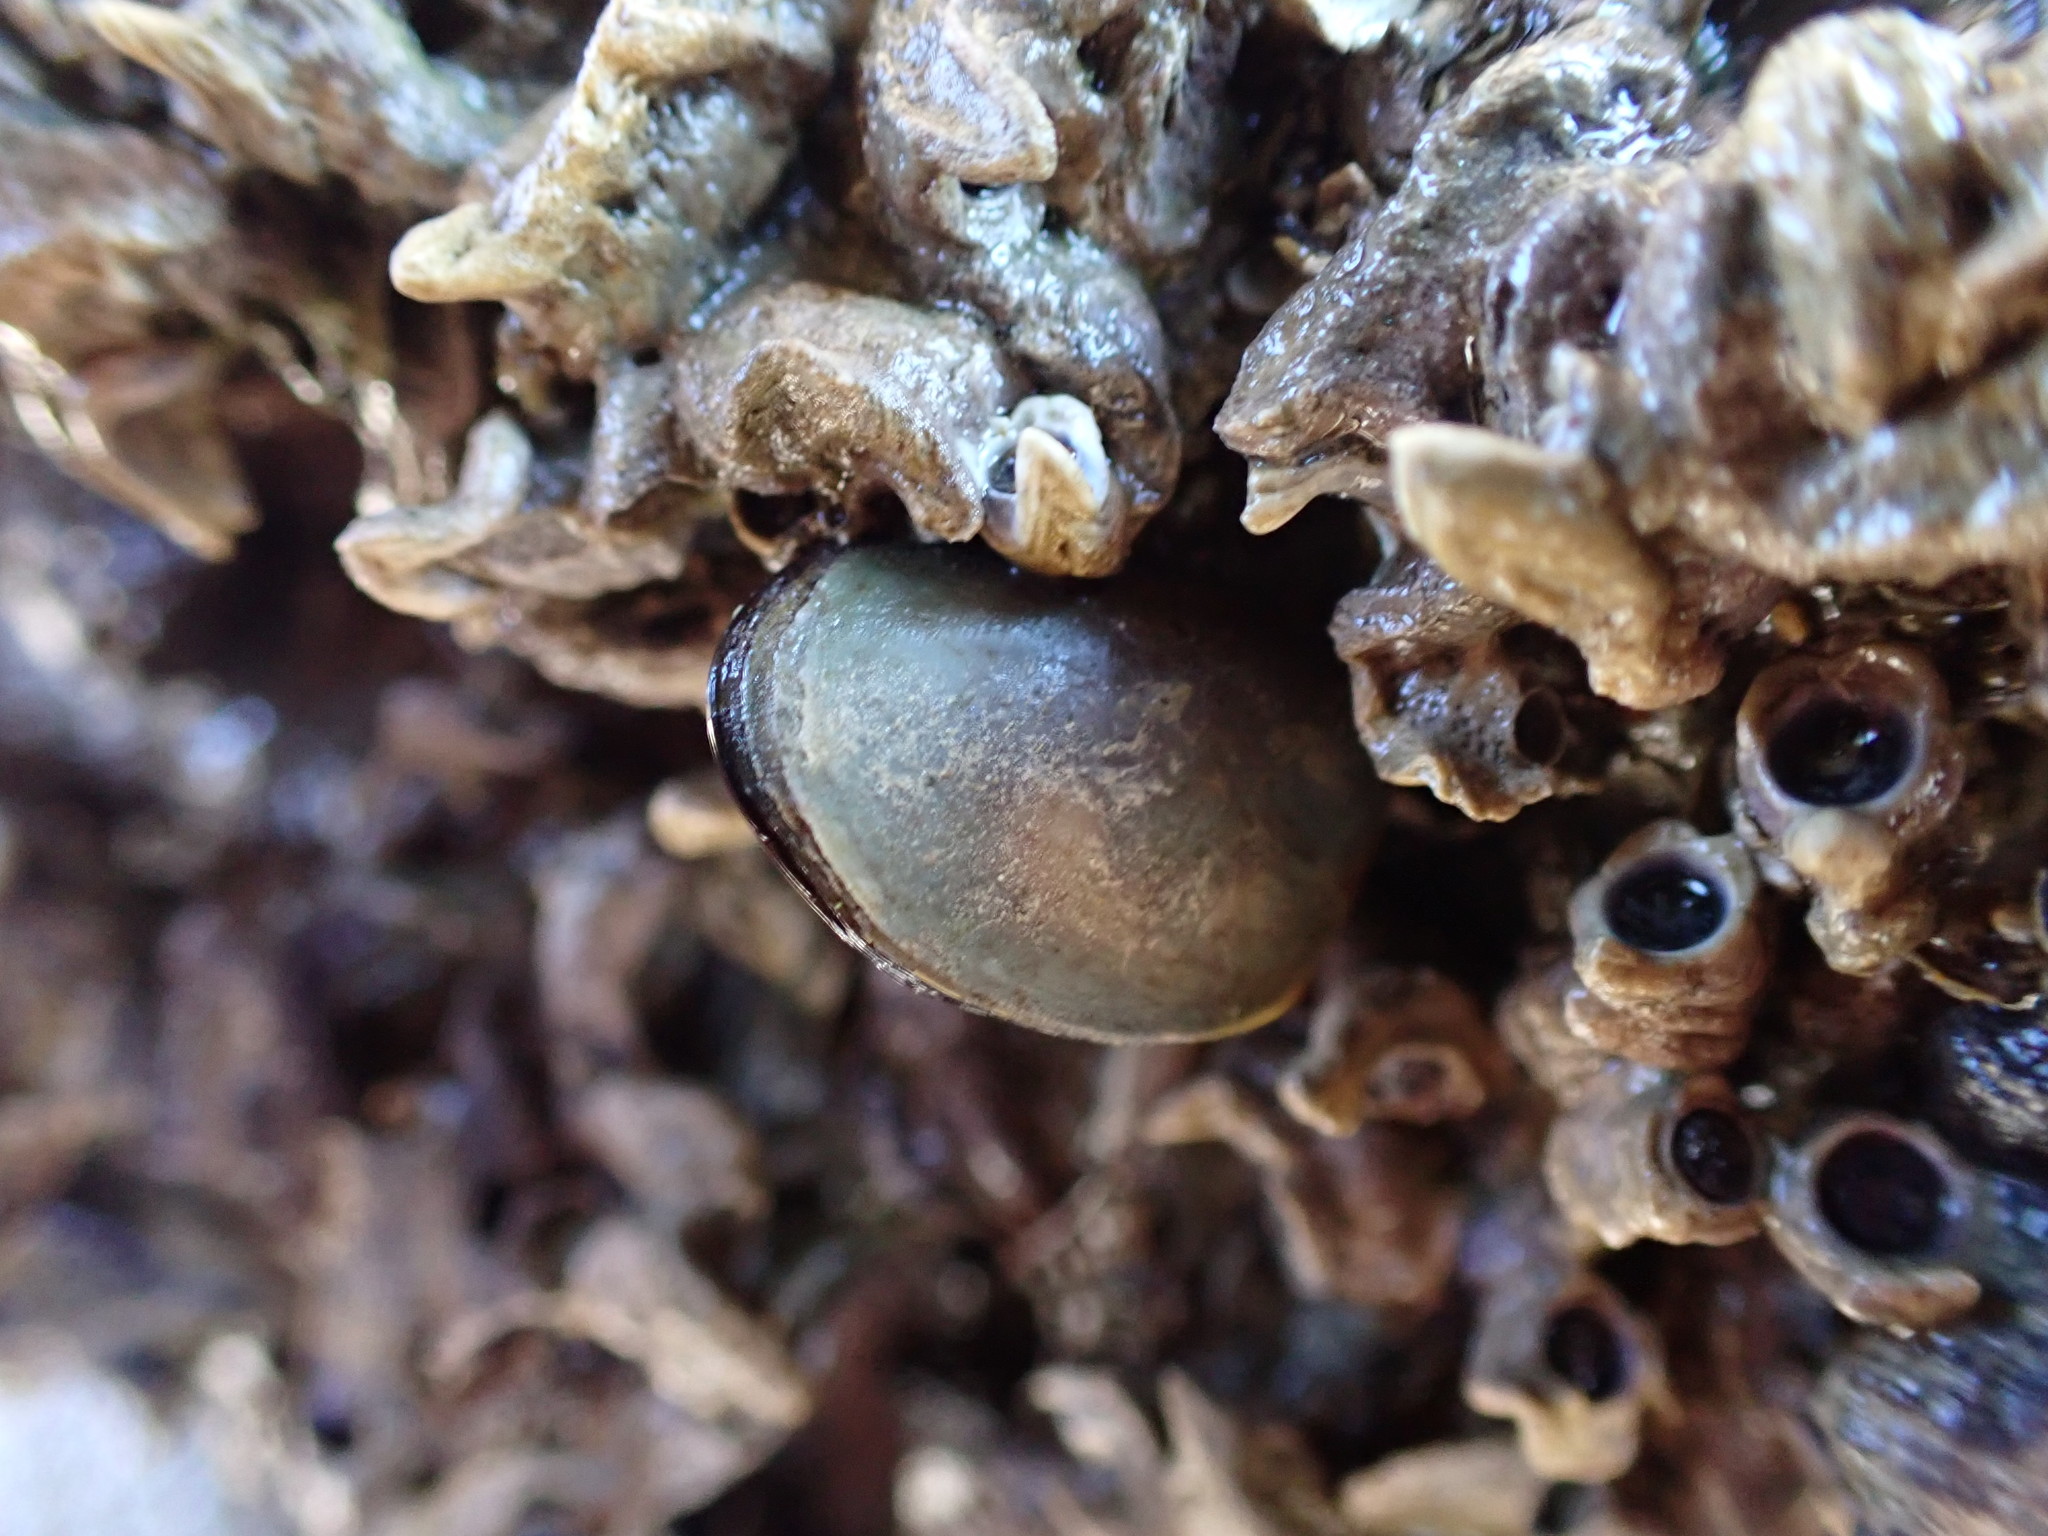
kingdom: Animalia
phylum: Mollusca
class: Bivalvia
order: Mytilida
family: Mytilidae
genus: Perna
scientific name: Perna canaliculus
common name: New zealand greenshelltm
